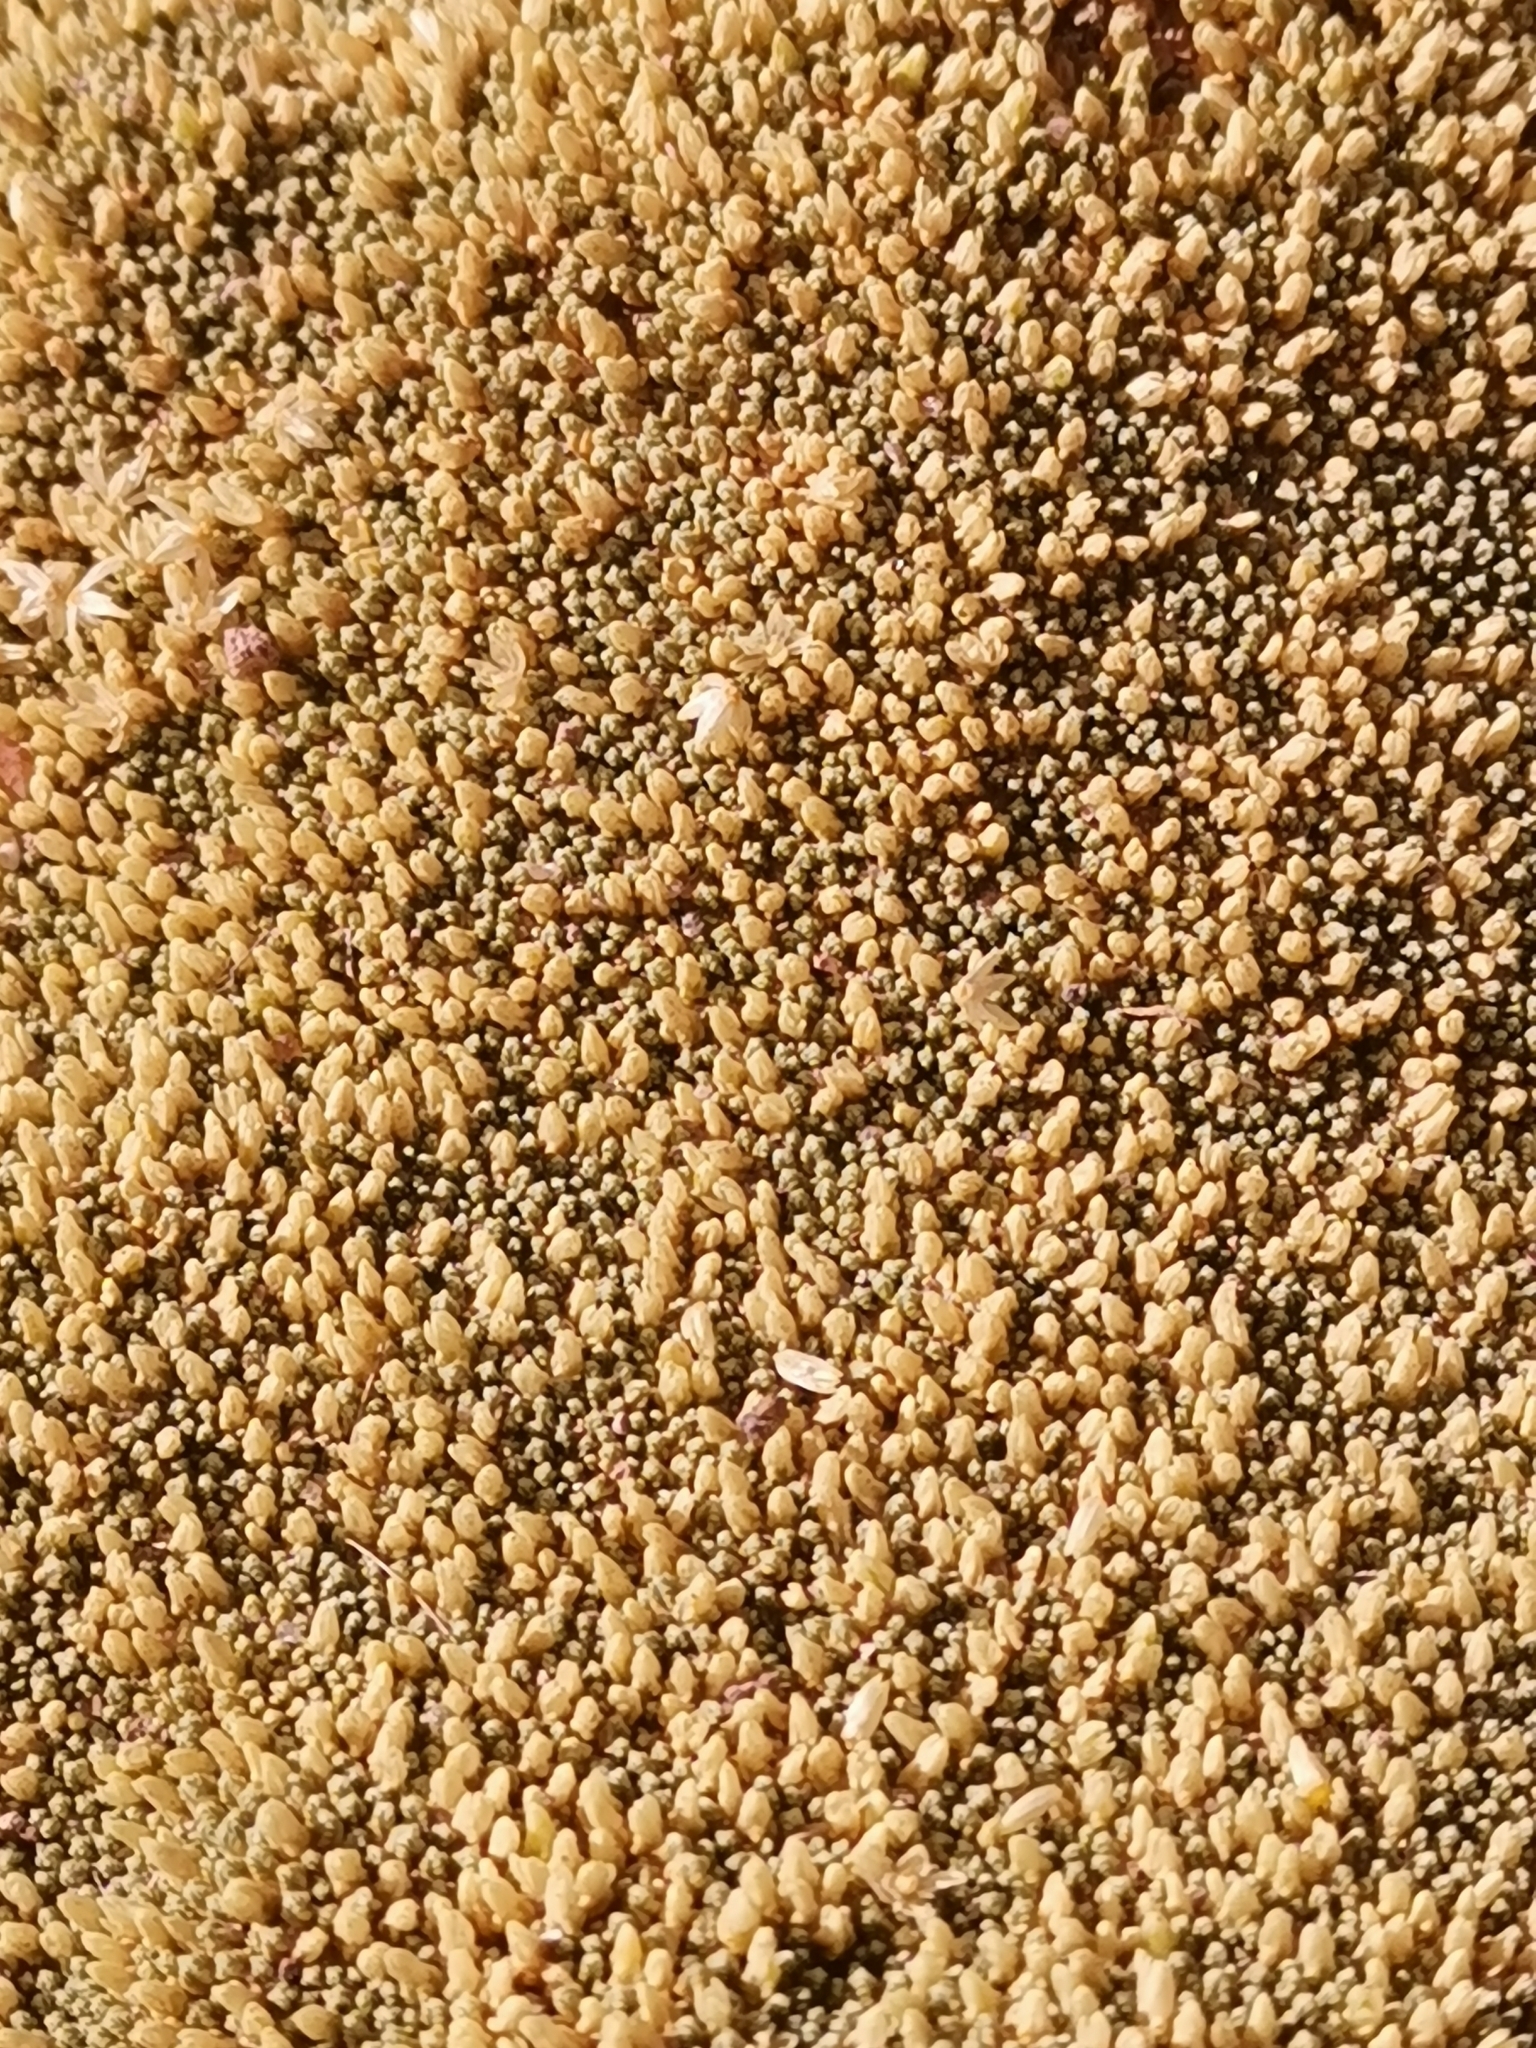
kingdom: Plantae
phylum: Tracheophyta
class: Magnoliopsida
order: Caryophyllales
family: Caryophyllaceae
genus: Pycnophyllum
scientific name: Pycnophyllum bryoides
